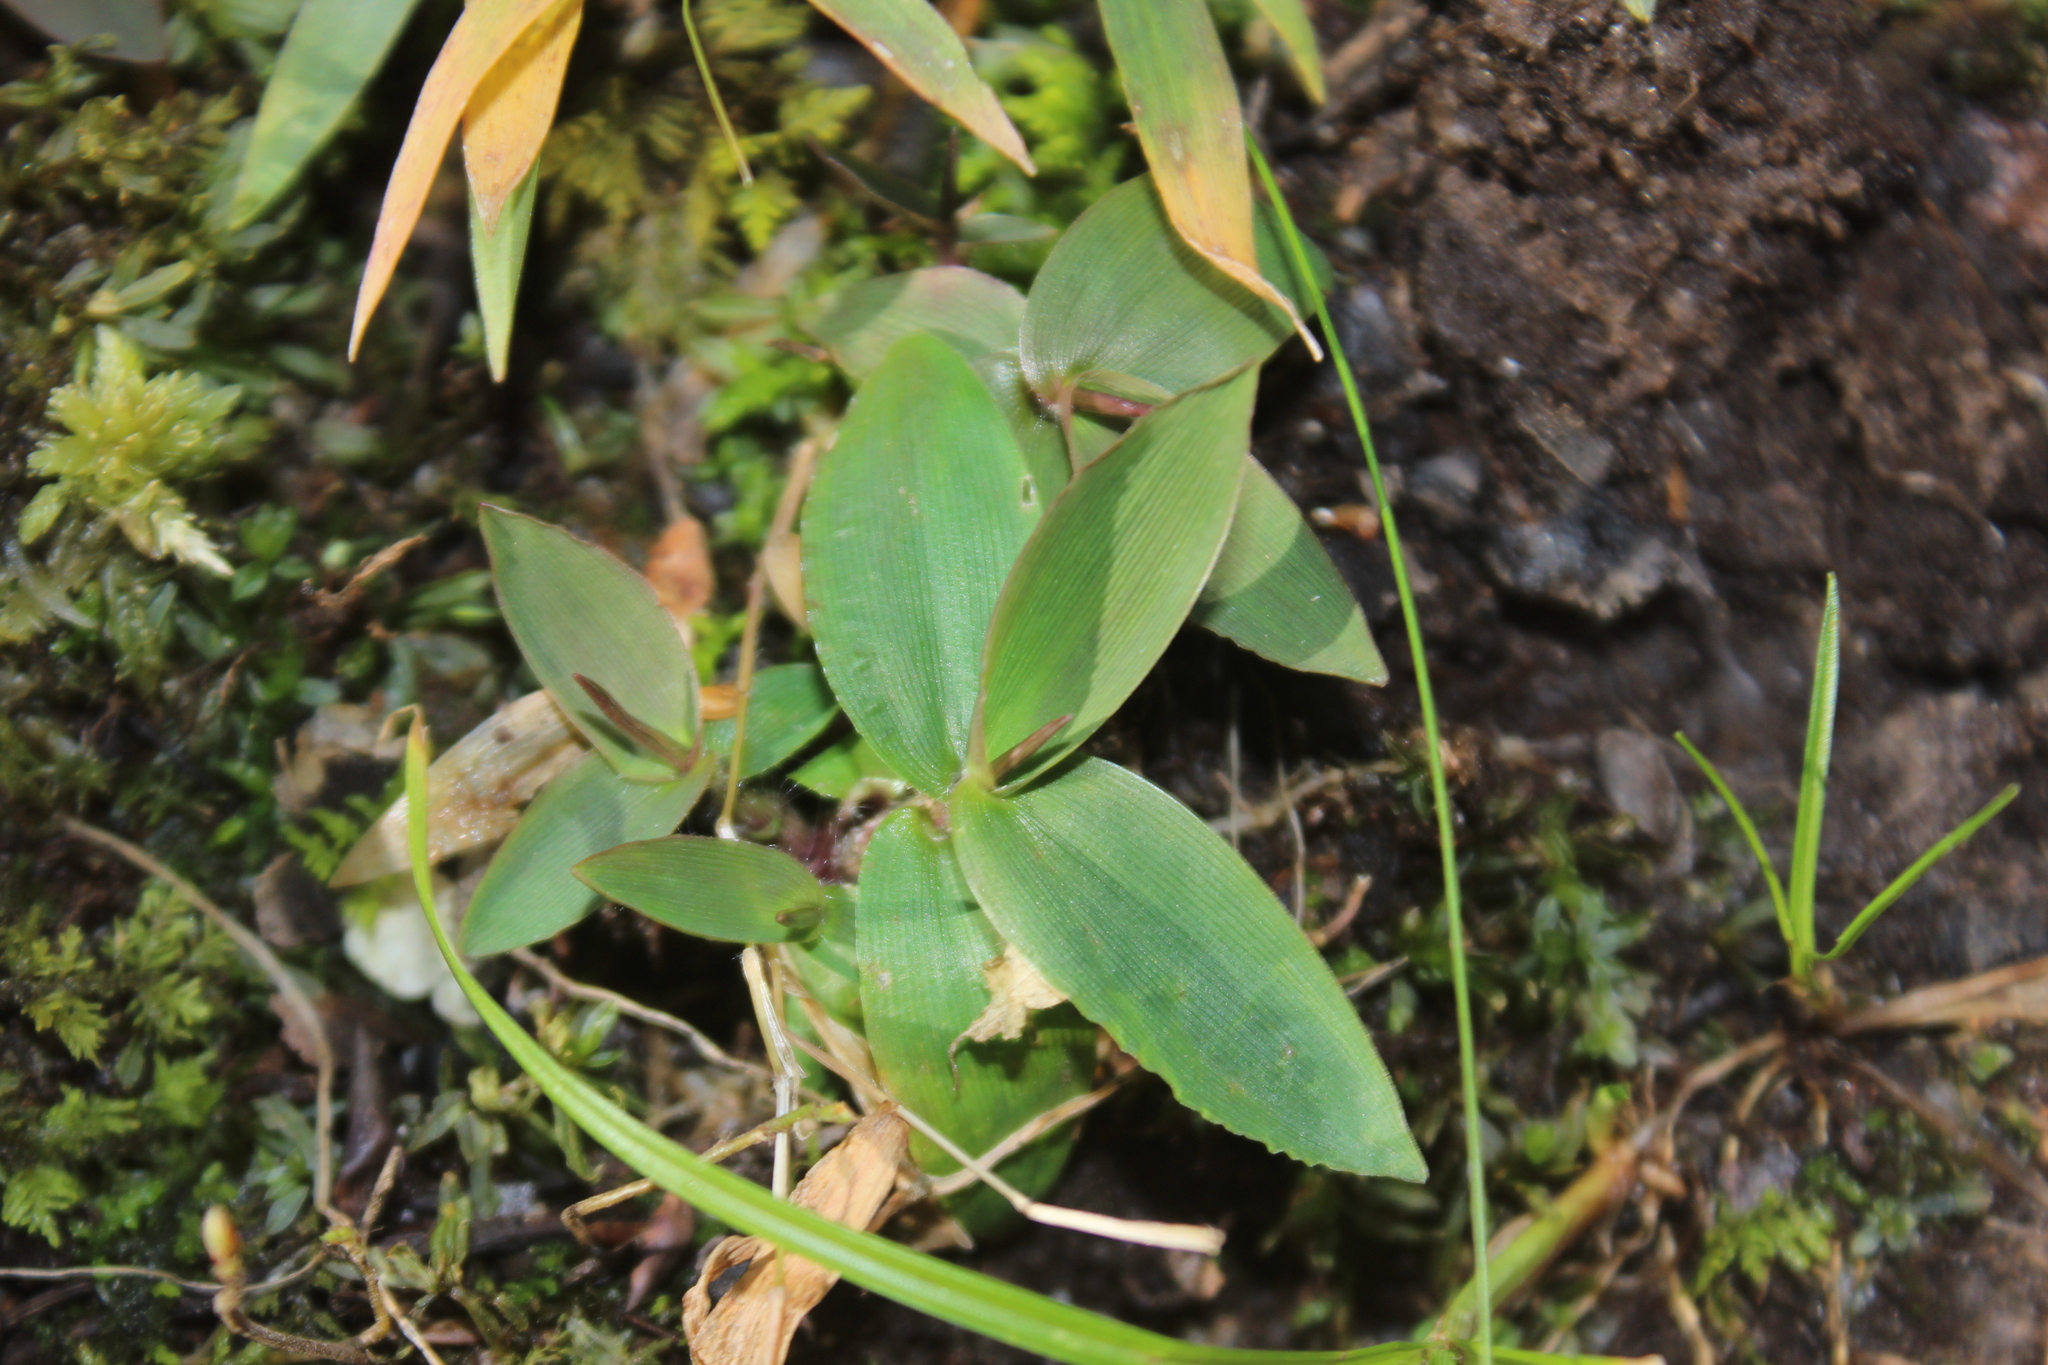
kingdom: Plantae
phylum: Tracheophyta
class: Liliopsida
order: Poales
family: Poaceae
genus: Dichanthelium
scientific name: Dichanthelium
